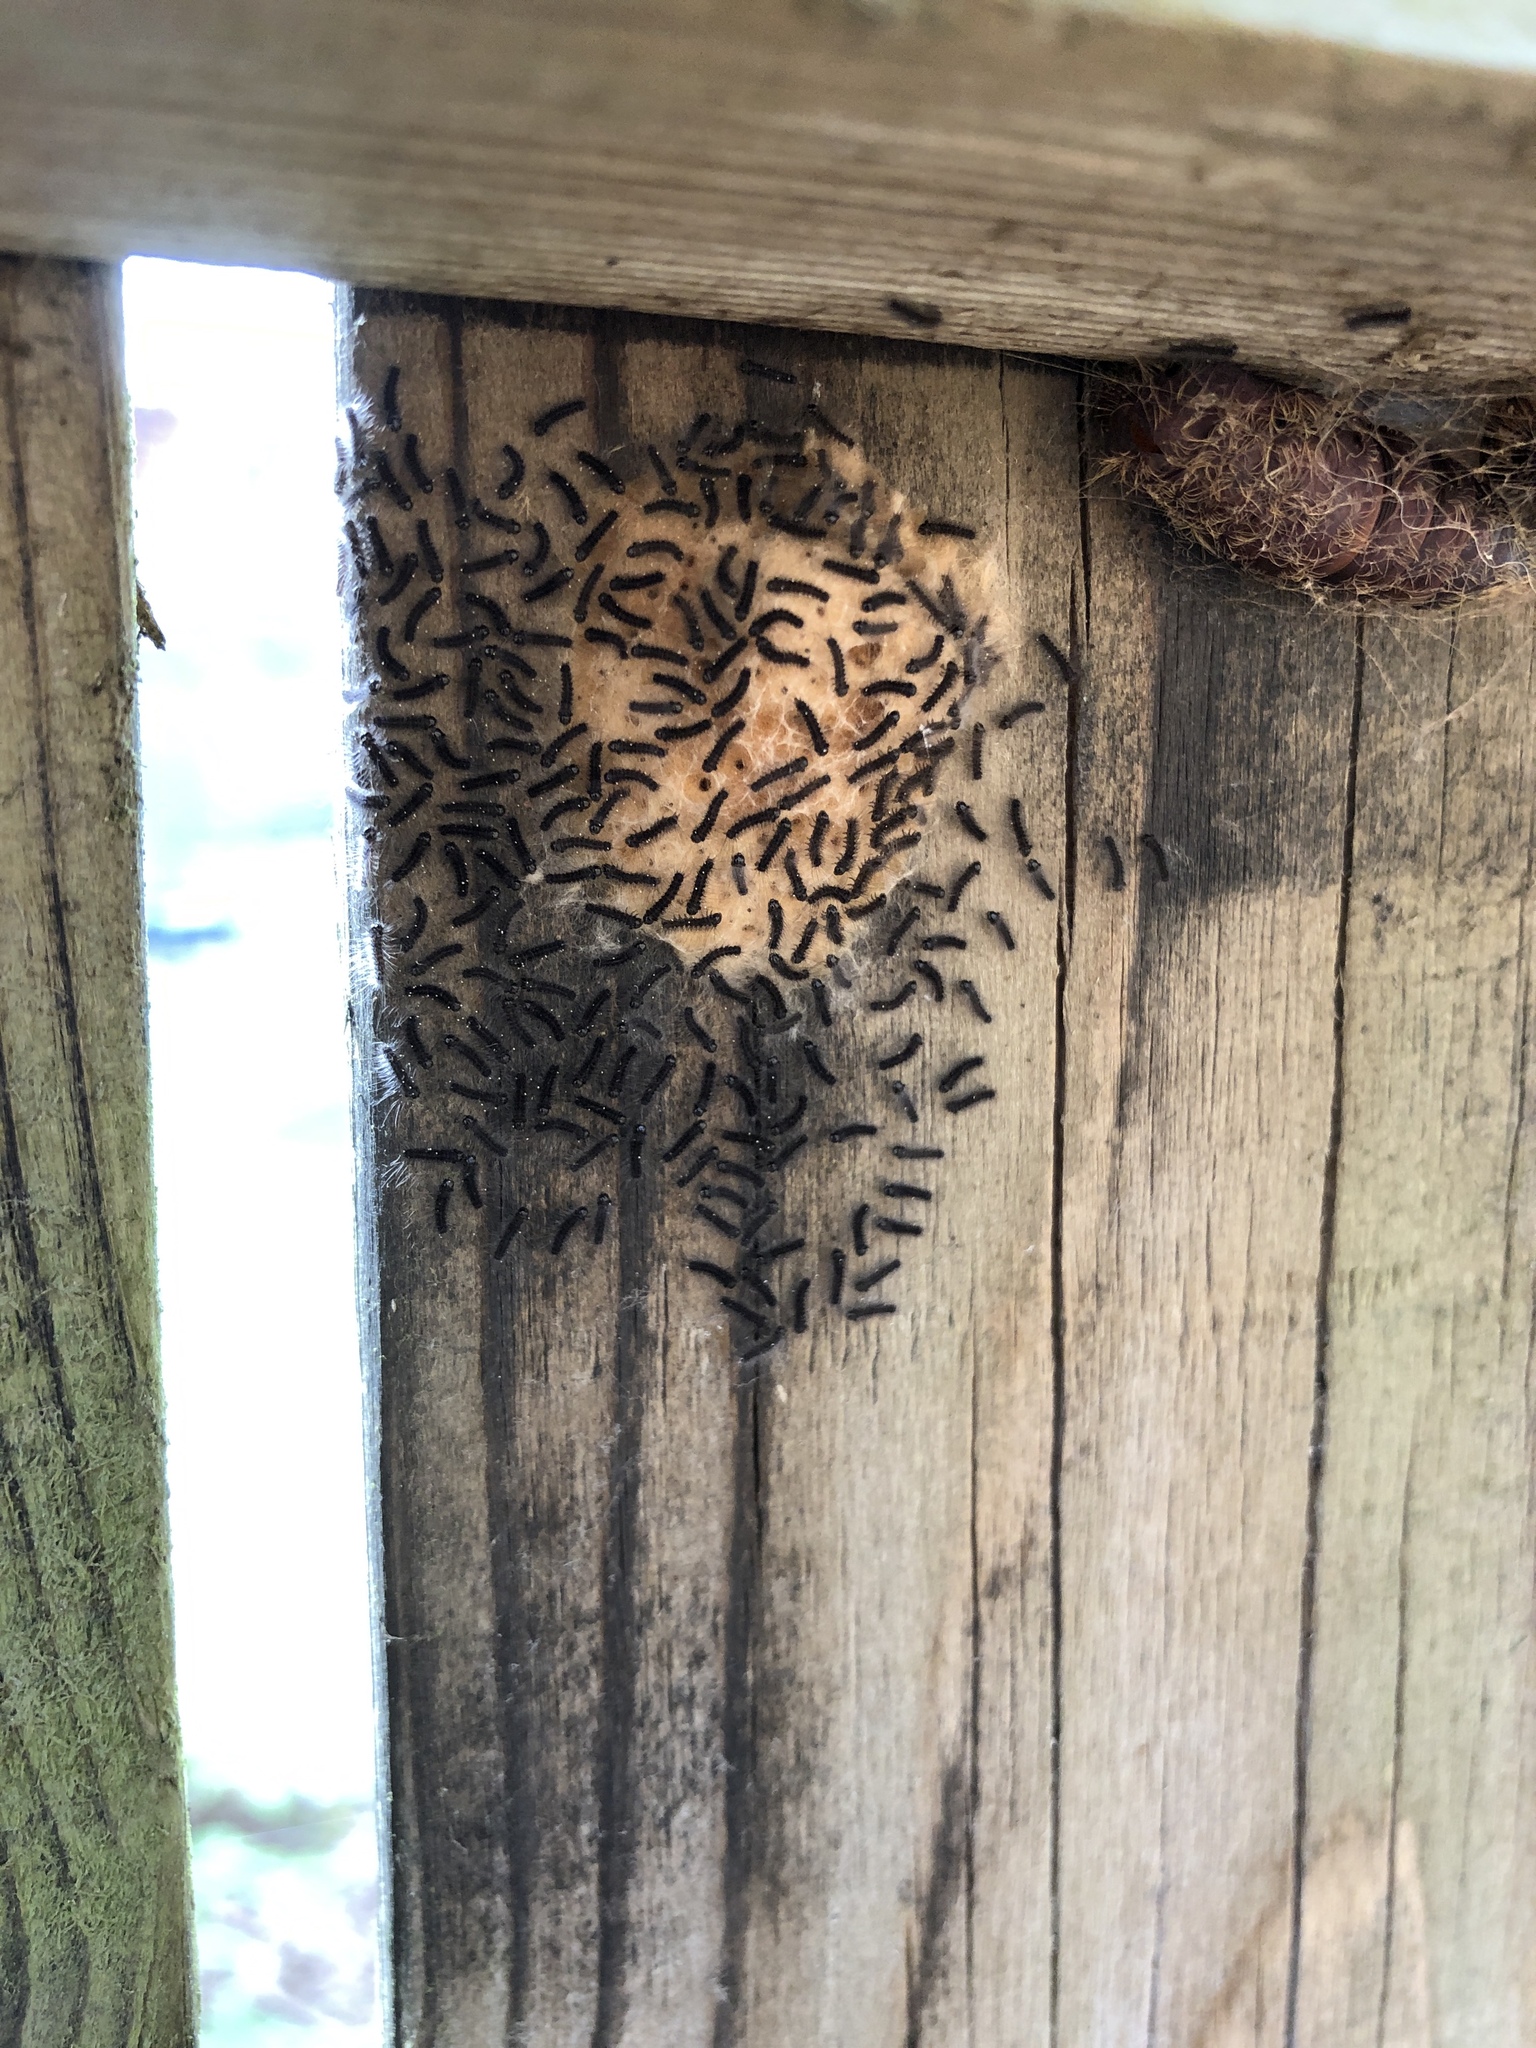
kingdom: Animalia
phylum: Arthropoda
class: Insecta
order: Lepidoptera
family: Erebidae
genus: Lymantria
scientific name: Lymantria dispar
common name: Gypsy moth
